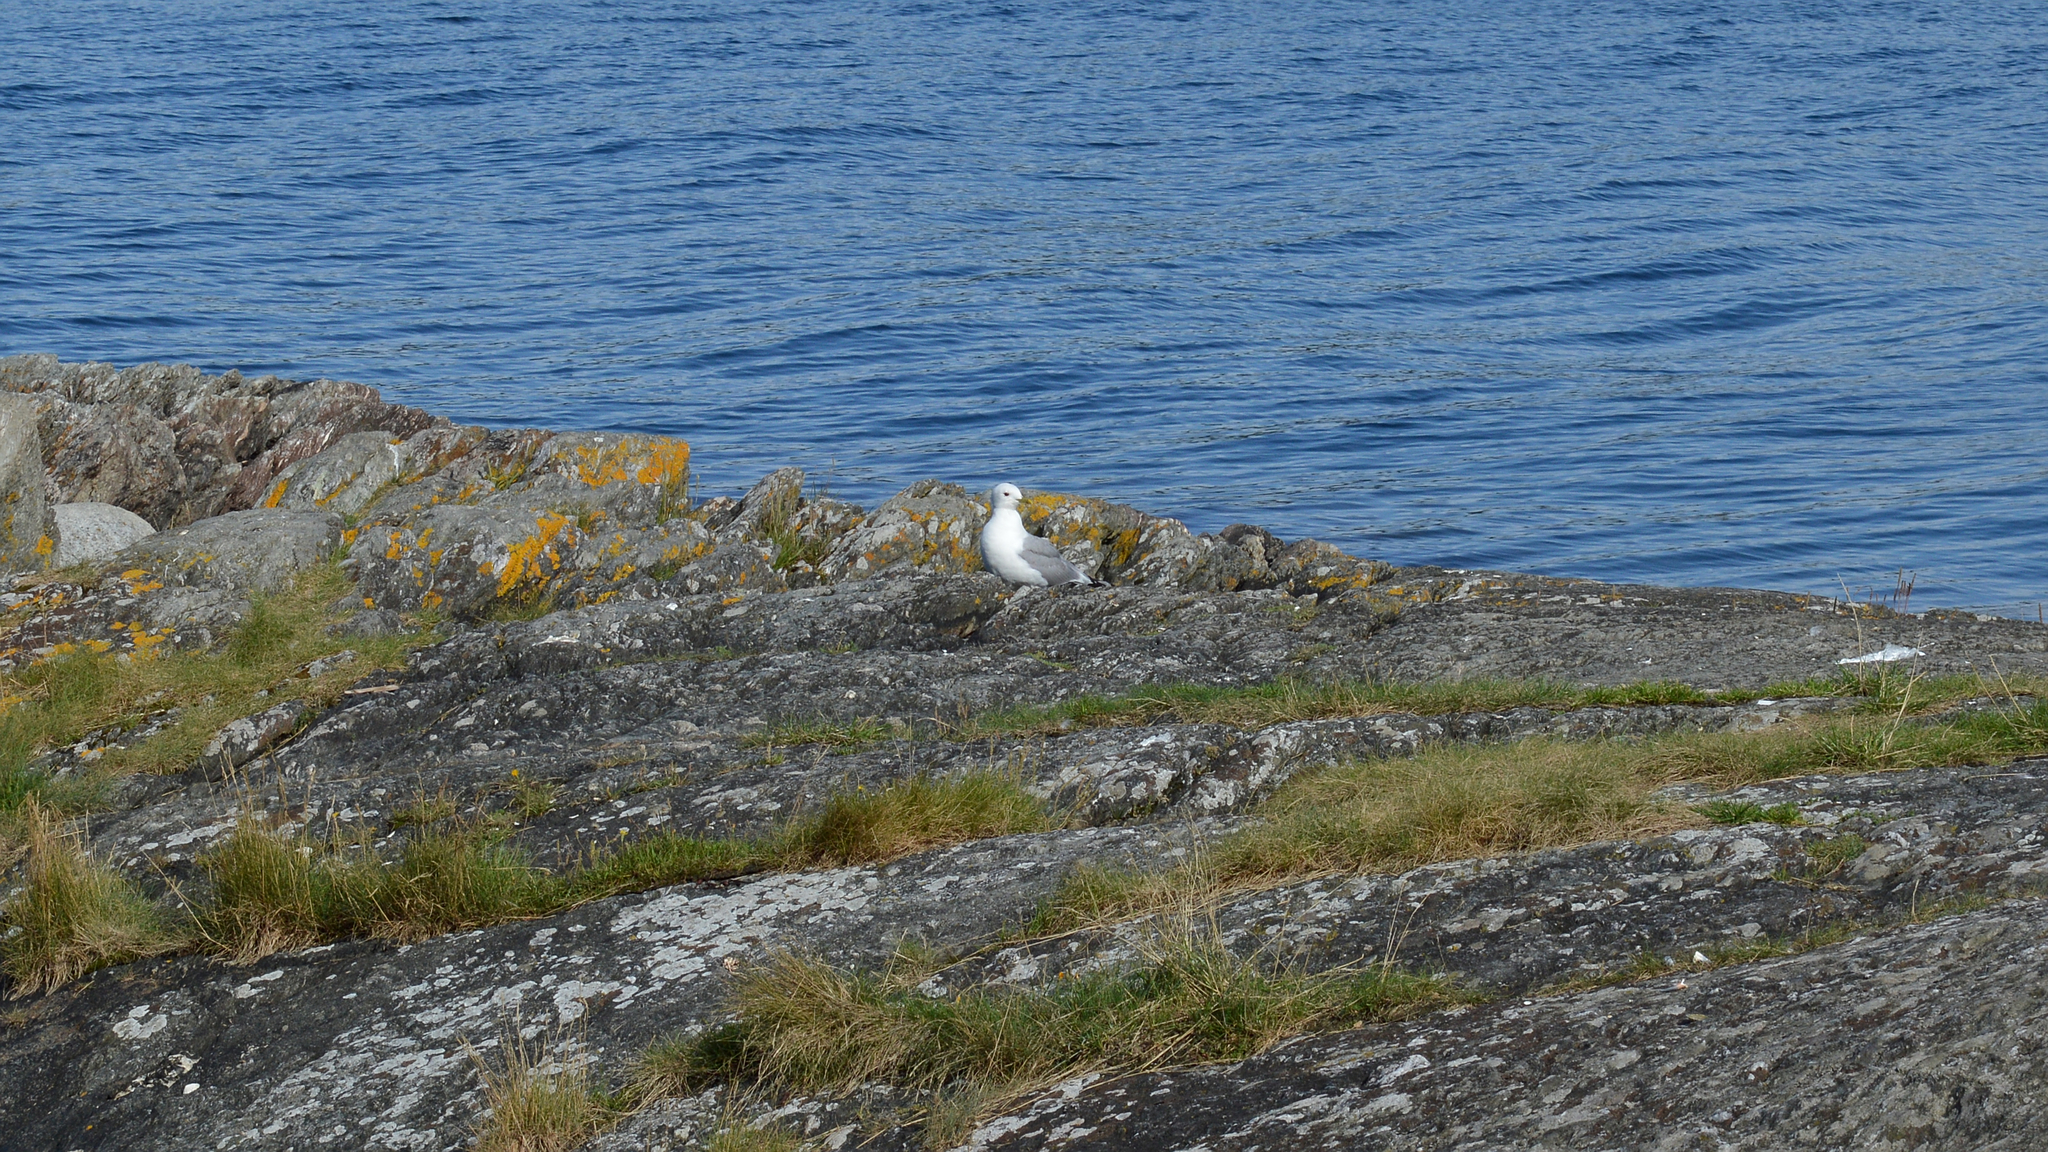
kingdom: Animalia
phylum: Chordata
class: Aves
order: Charadriiformes
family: Laridae
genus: Larus
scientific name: Larus canus
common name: Mew gull
